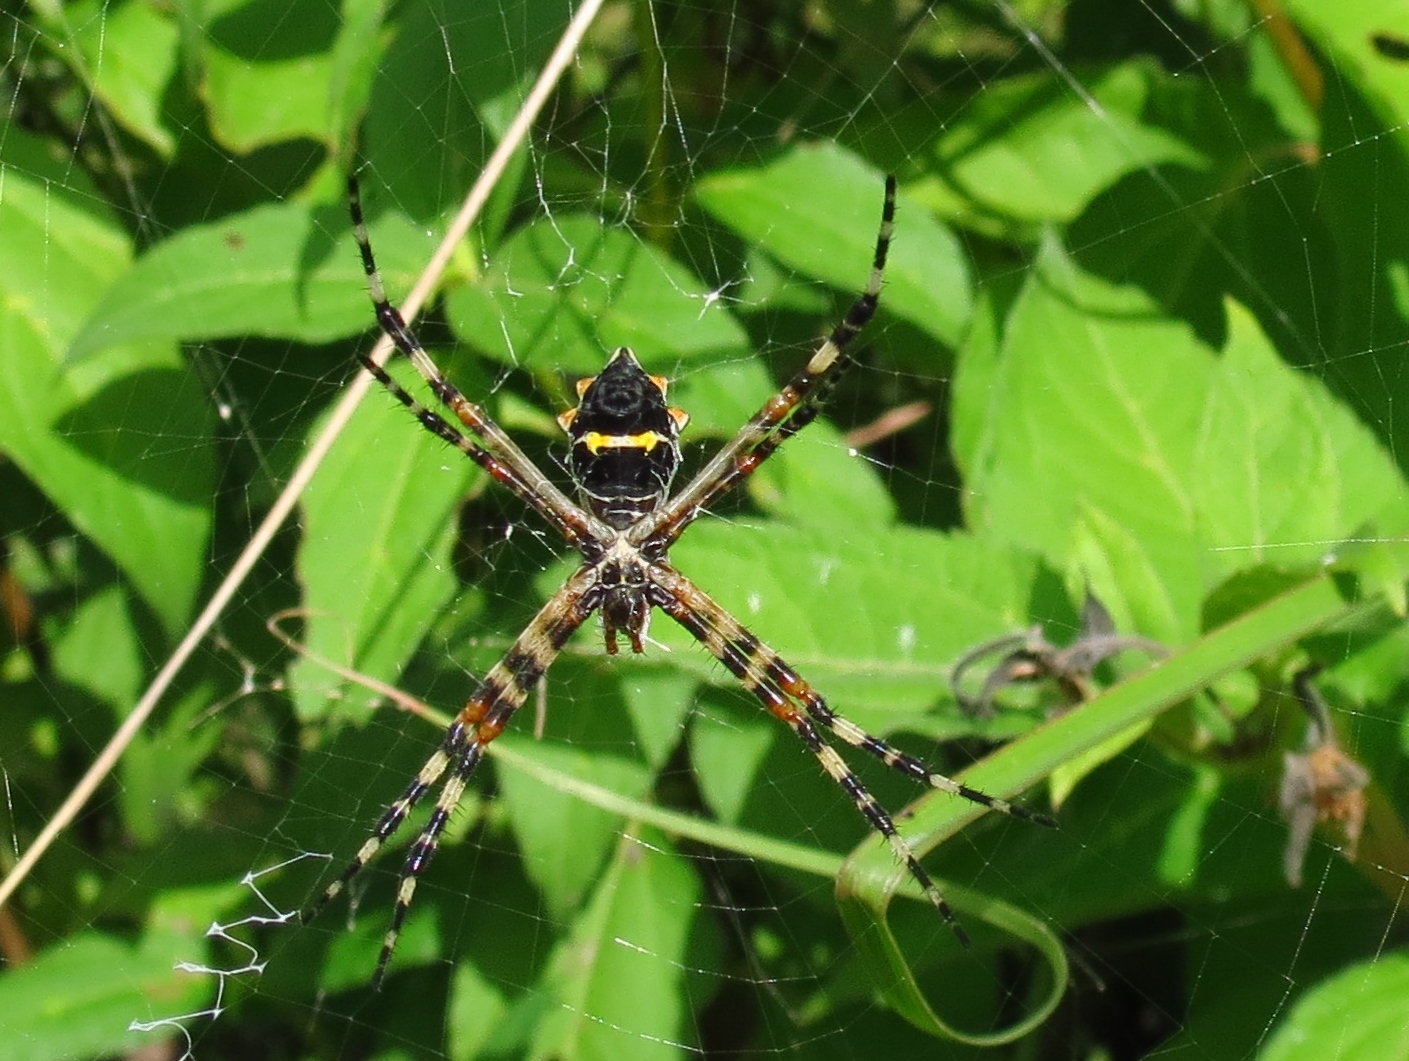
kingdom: Animalia
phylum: Arthropoda
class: Arachnida
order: Araneae
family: Araneidae
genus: Argiope
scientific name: Argiope argentata
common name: Orb weavers
